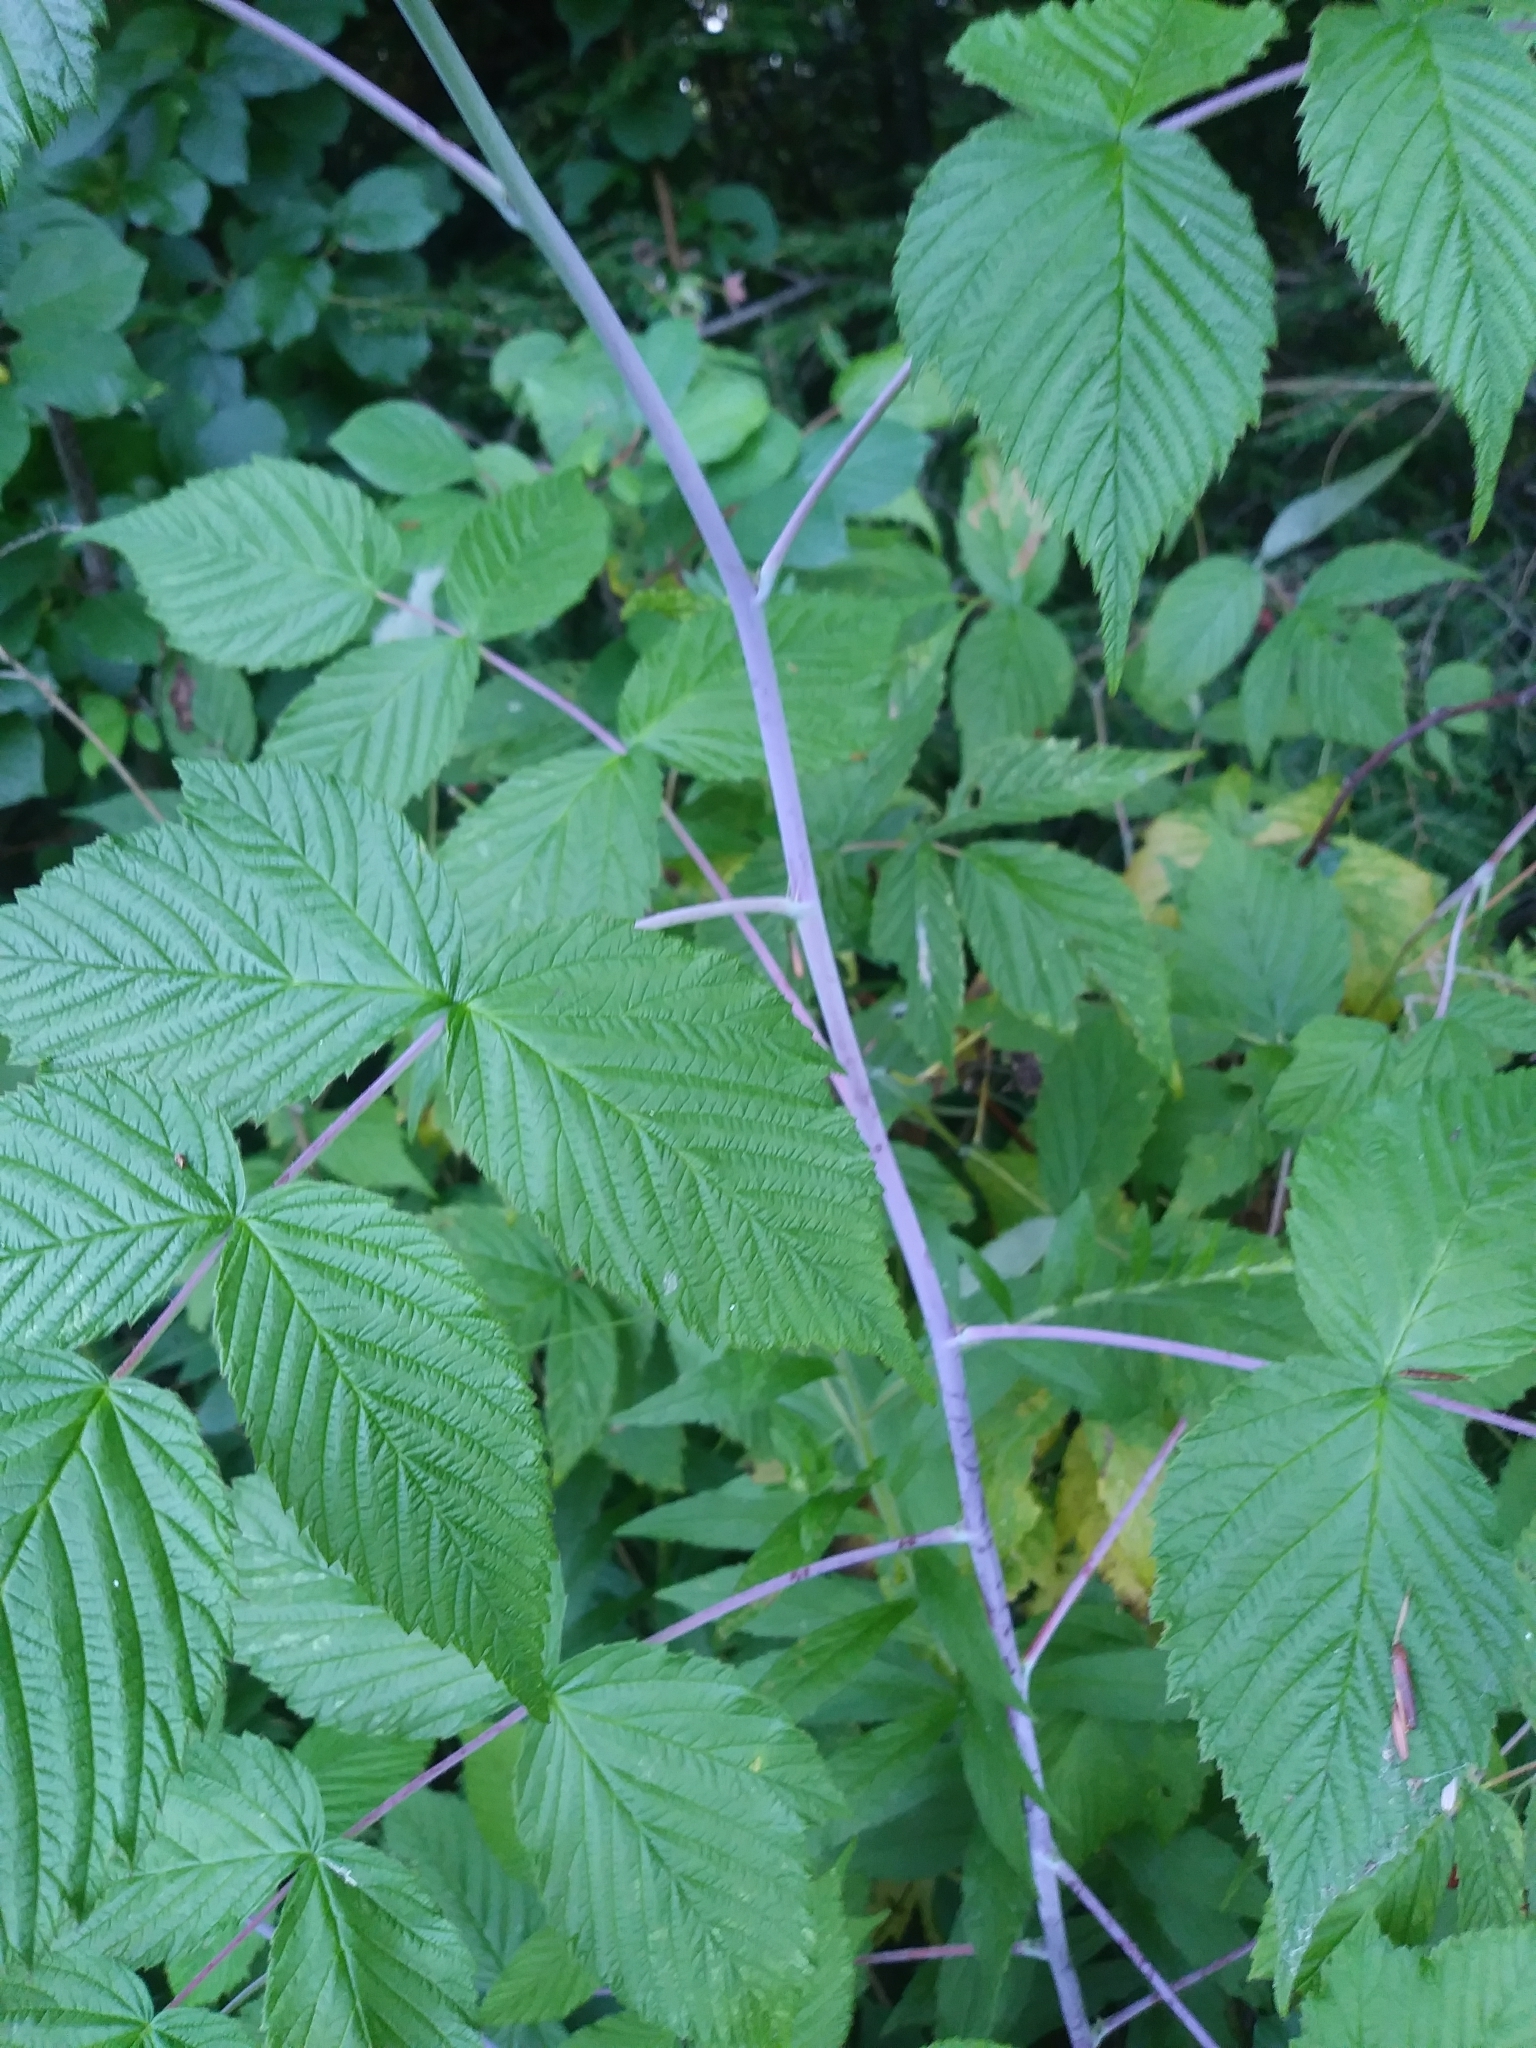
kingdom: Plantae
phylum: Tracheophyta
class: Magnoliopsida
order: Rosales
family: Rosaceae
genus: Rubus
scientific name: Rubus allegheniensis
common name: Allegheny blackberry
